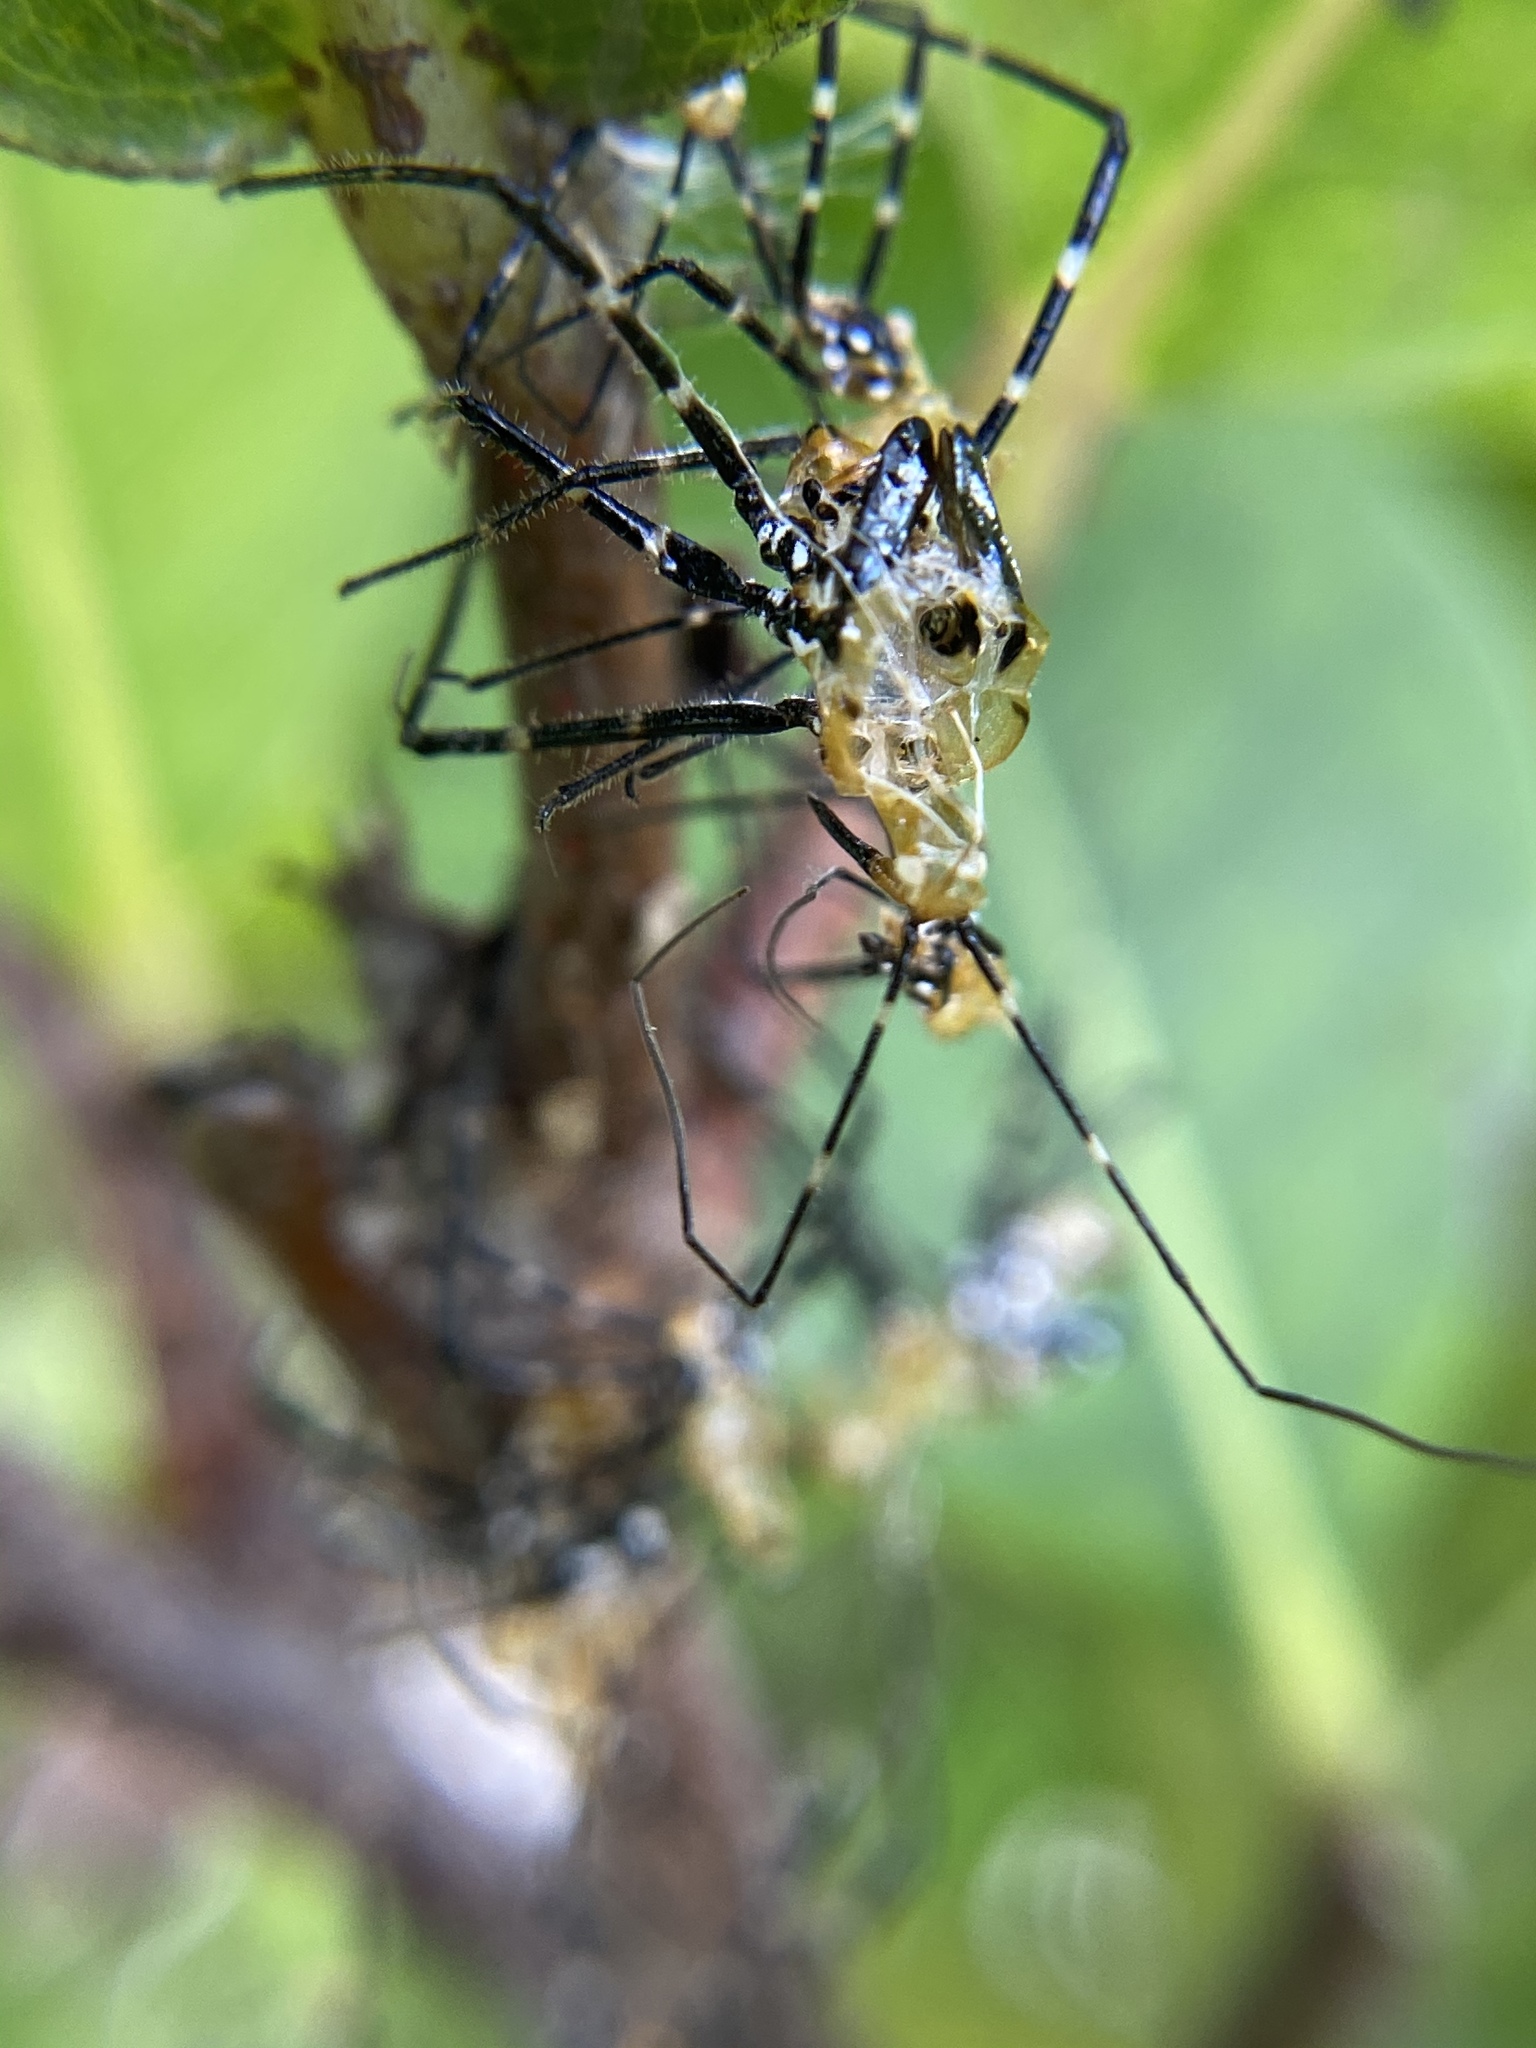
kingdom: Animalia
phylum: Arthropoda
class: Insecta
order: Hemiptera
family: Reduviidae
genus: Zelus
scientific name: Zelus longipes
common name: Milkweed assassin bug
